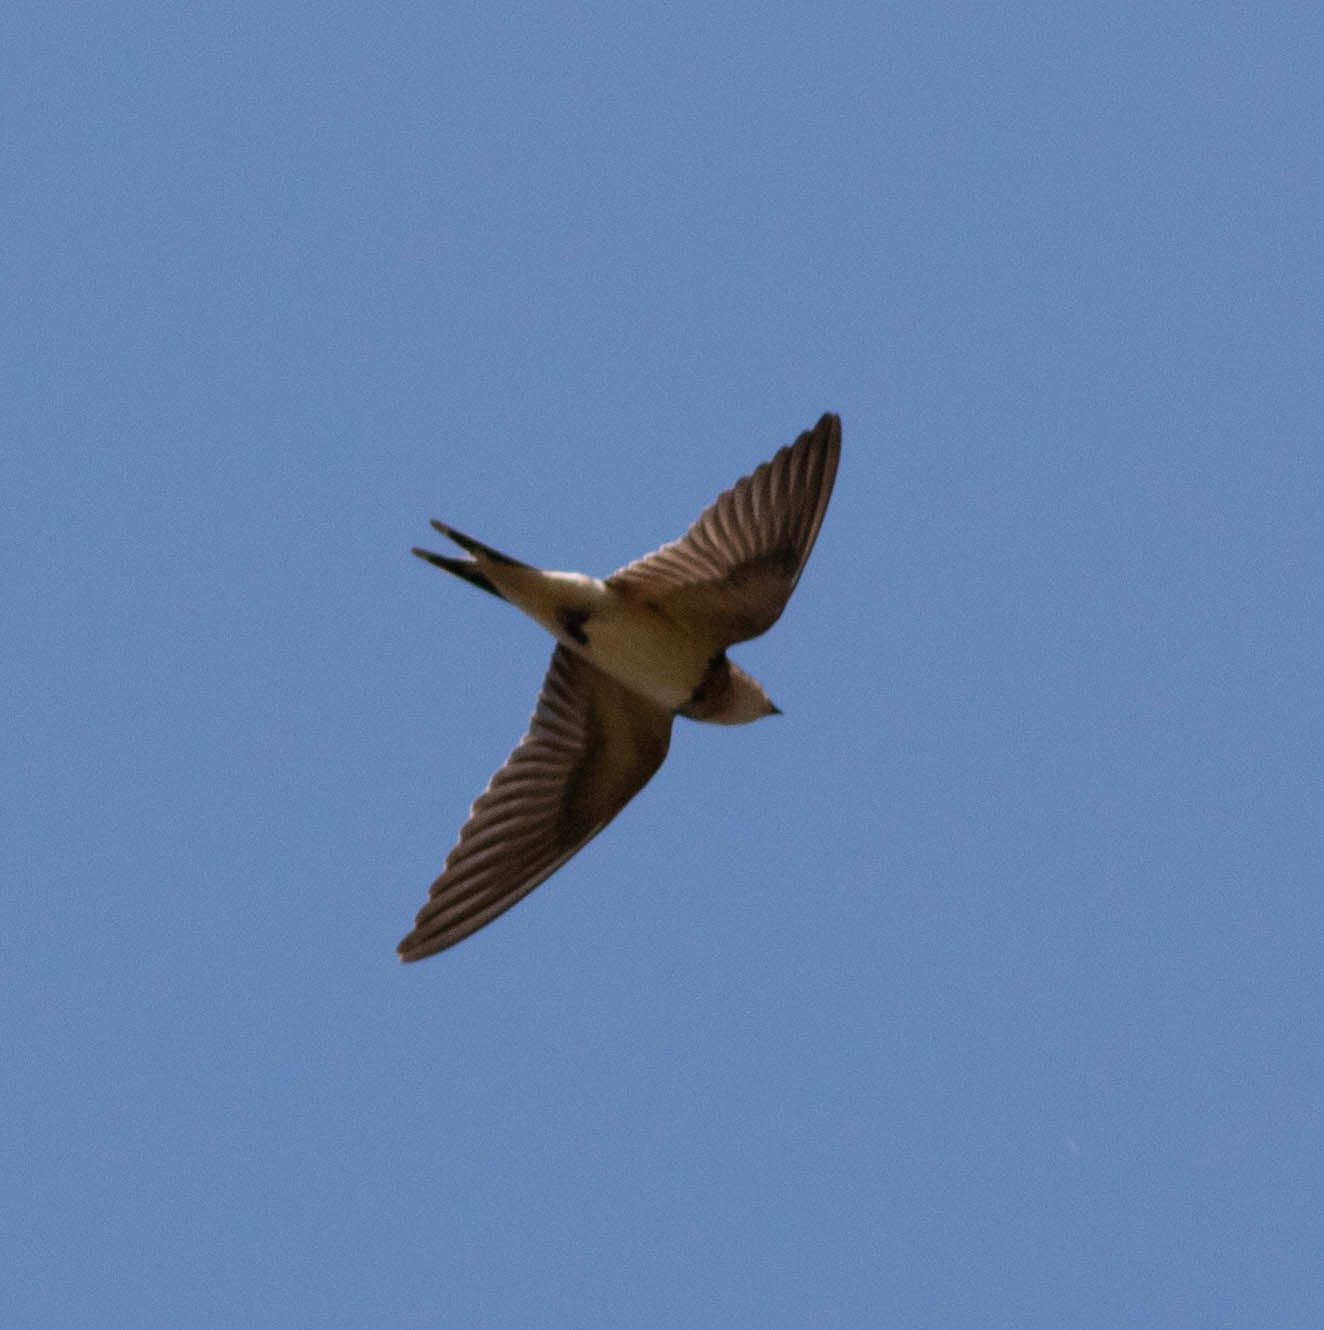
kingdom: Animalia
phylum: Chordata
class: Aves
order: Passeriformes
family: Hirundinidae
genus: Petrochelidon
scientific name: Petrochelidon pyrrhonota
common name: American cliff swallow
